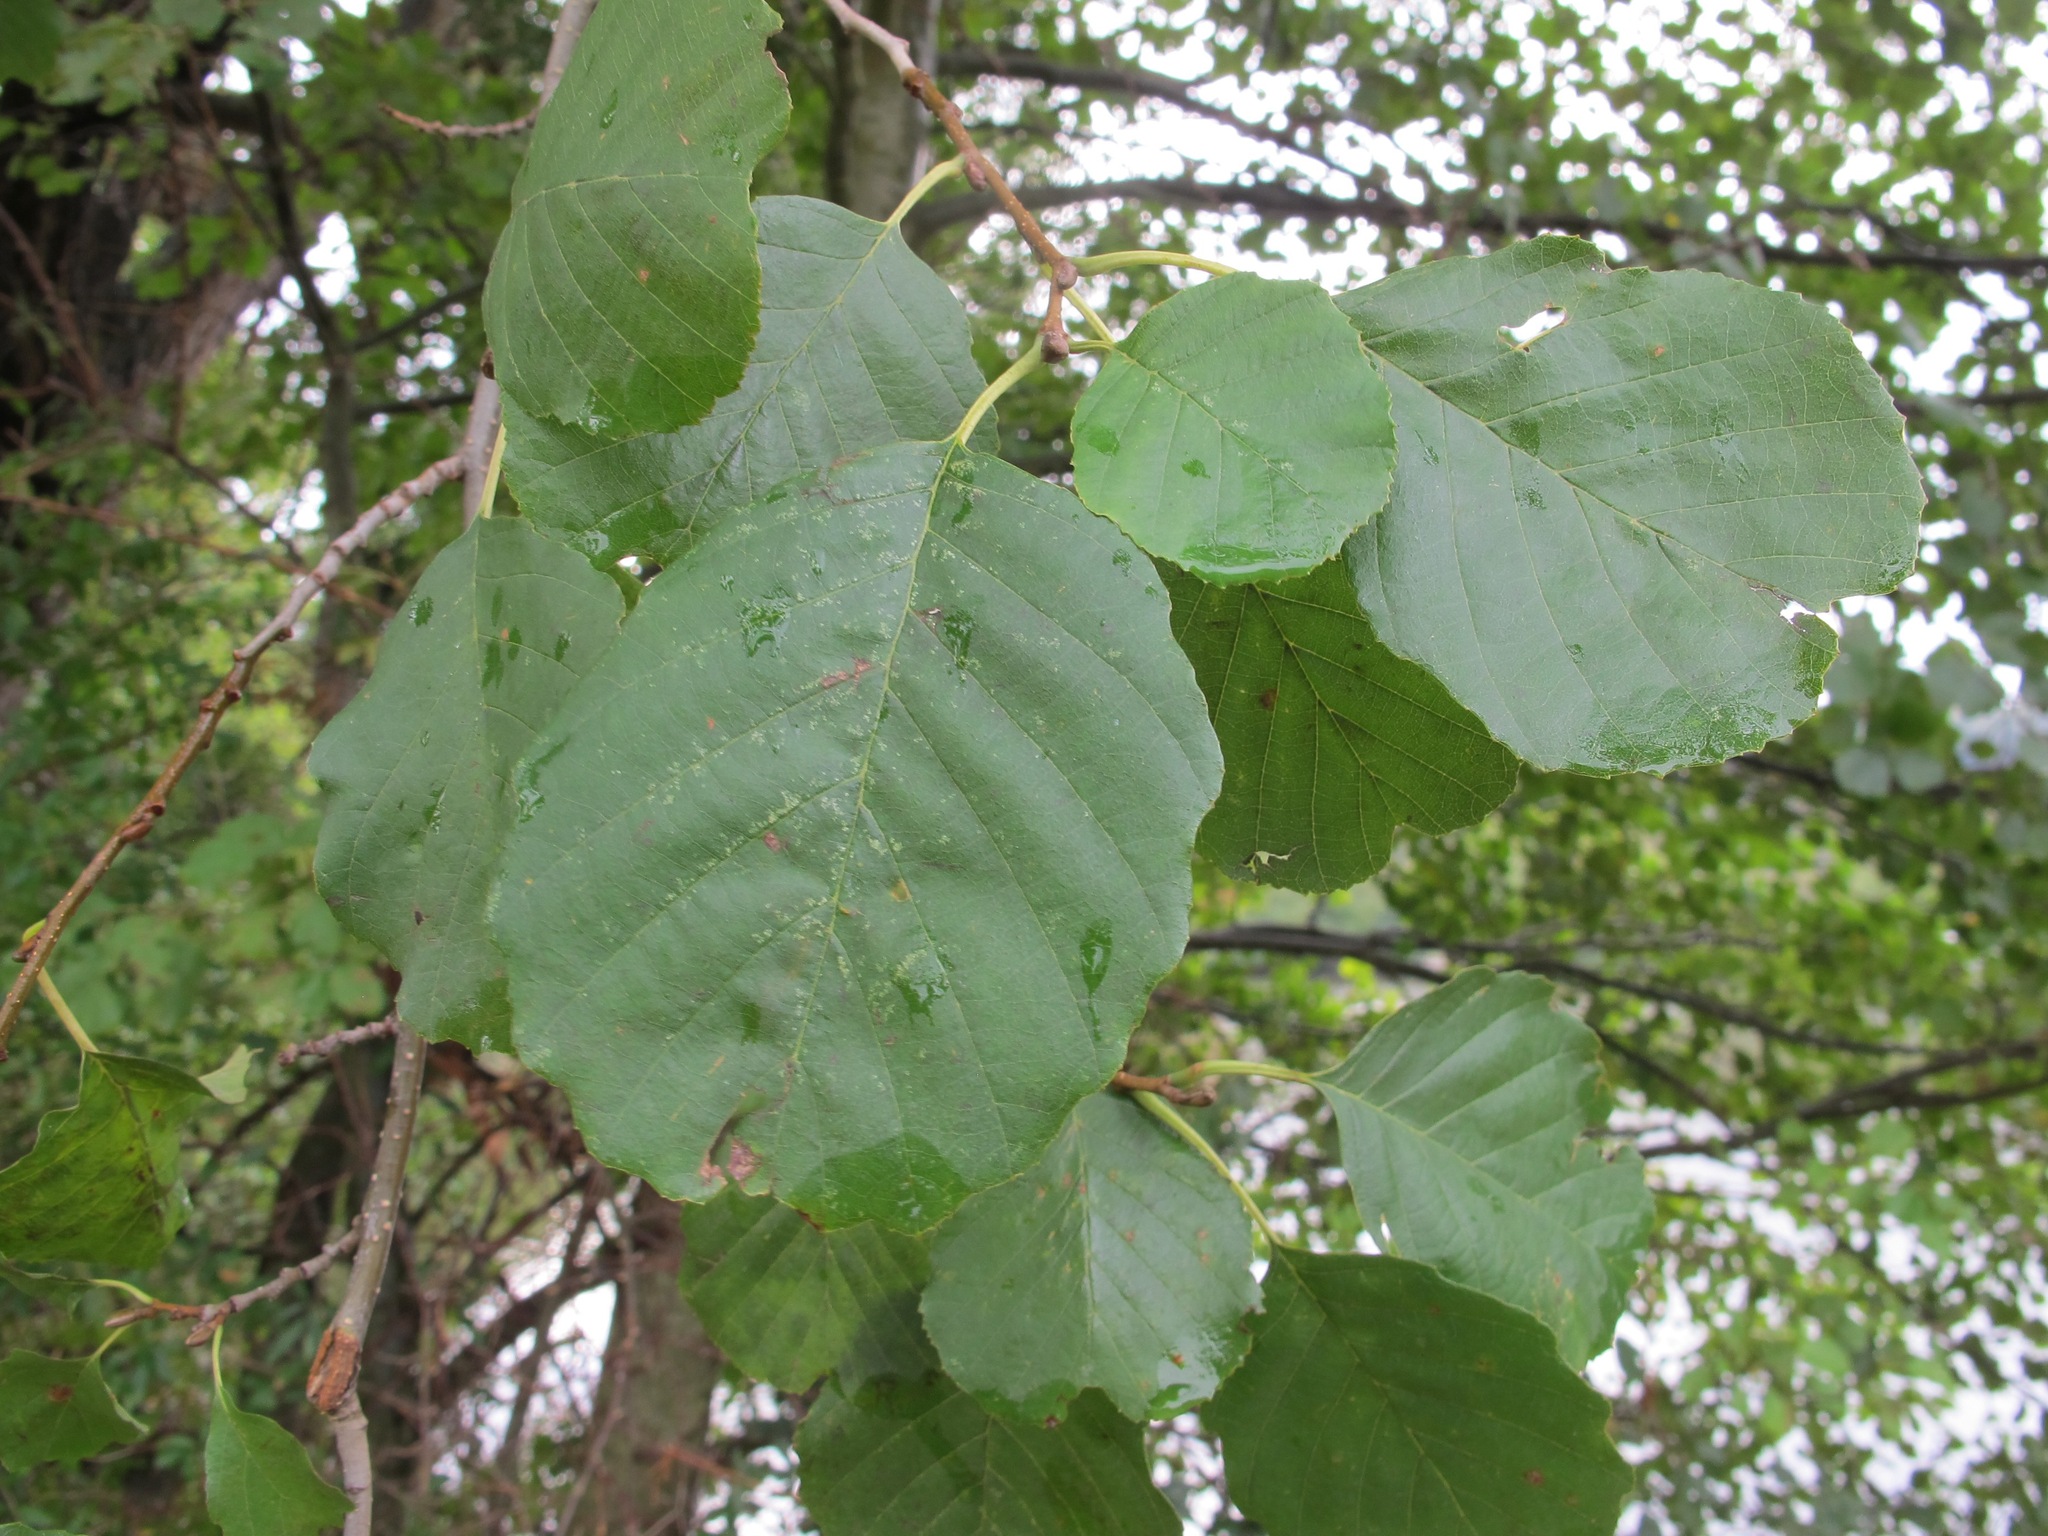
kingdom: Plantae
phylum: Tracheophyta
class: Magnoliopsida
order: Fagales
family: Betulaceae
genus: Alnus
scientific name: Alnus glutinosa
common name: Black alder
